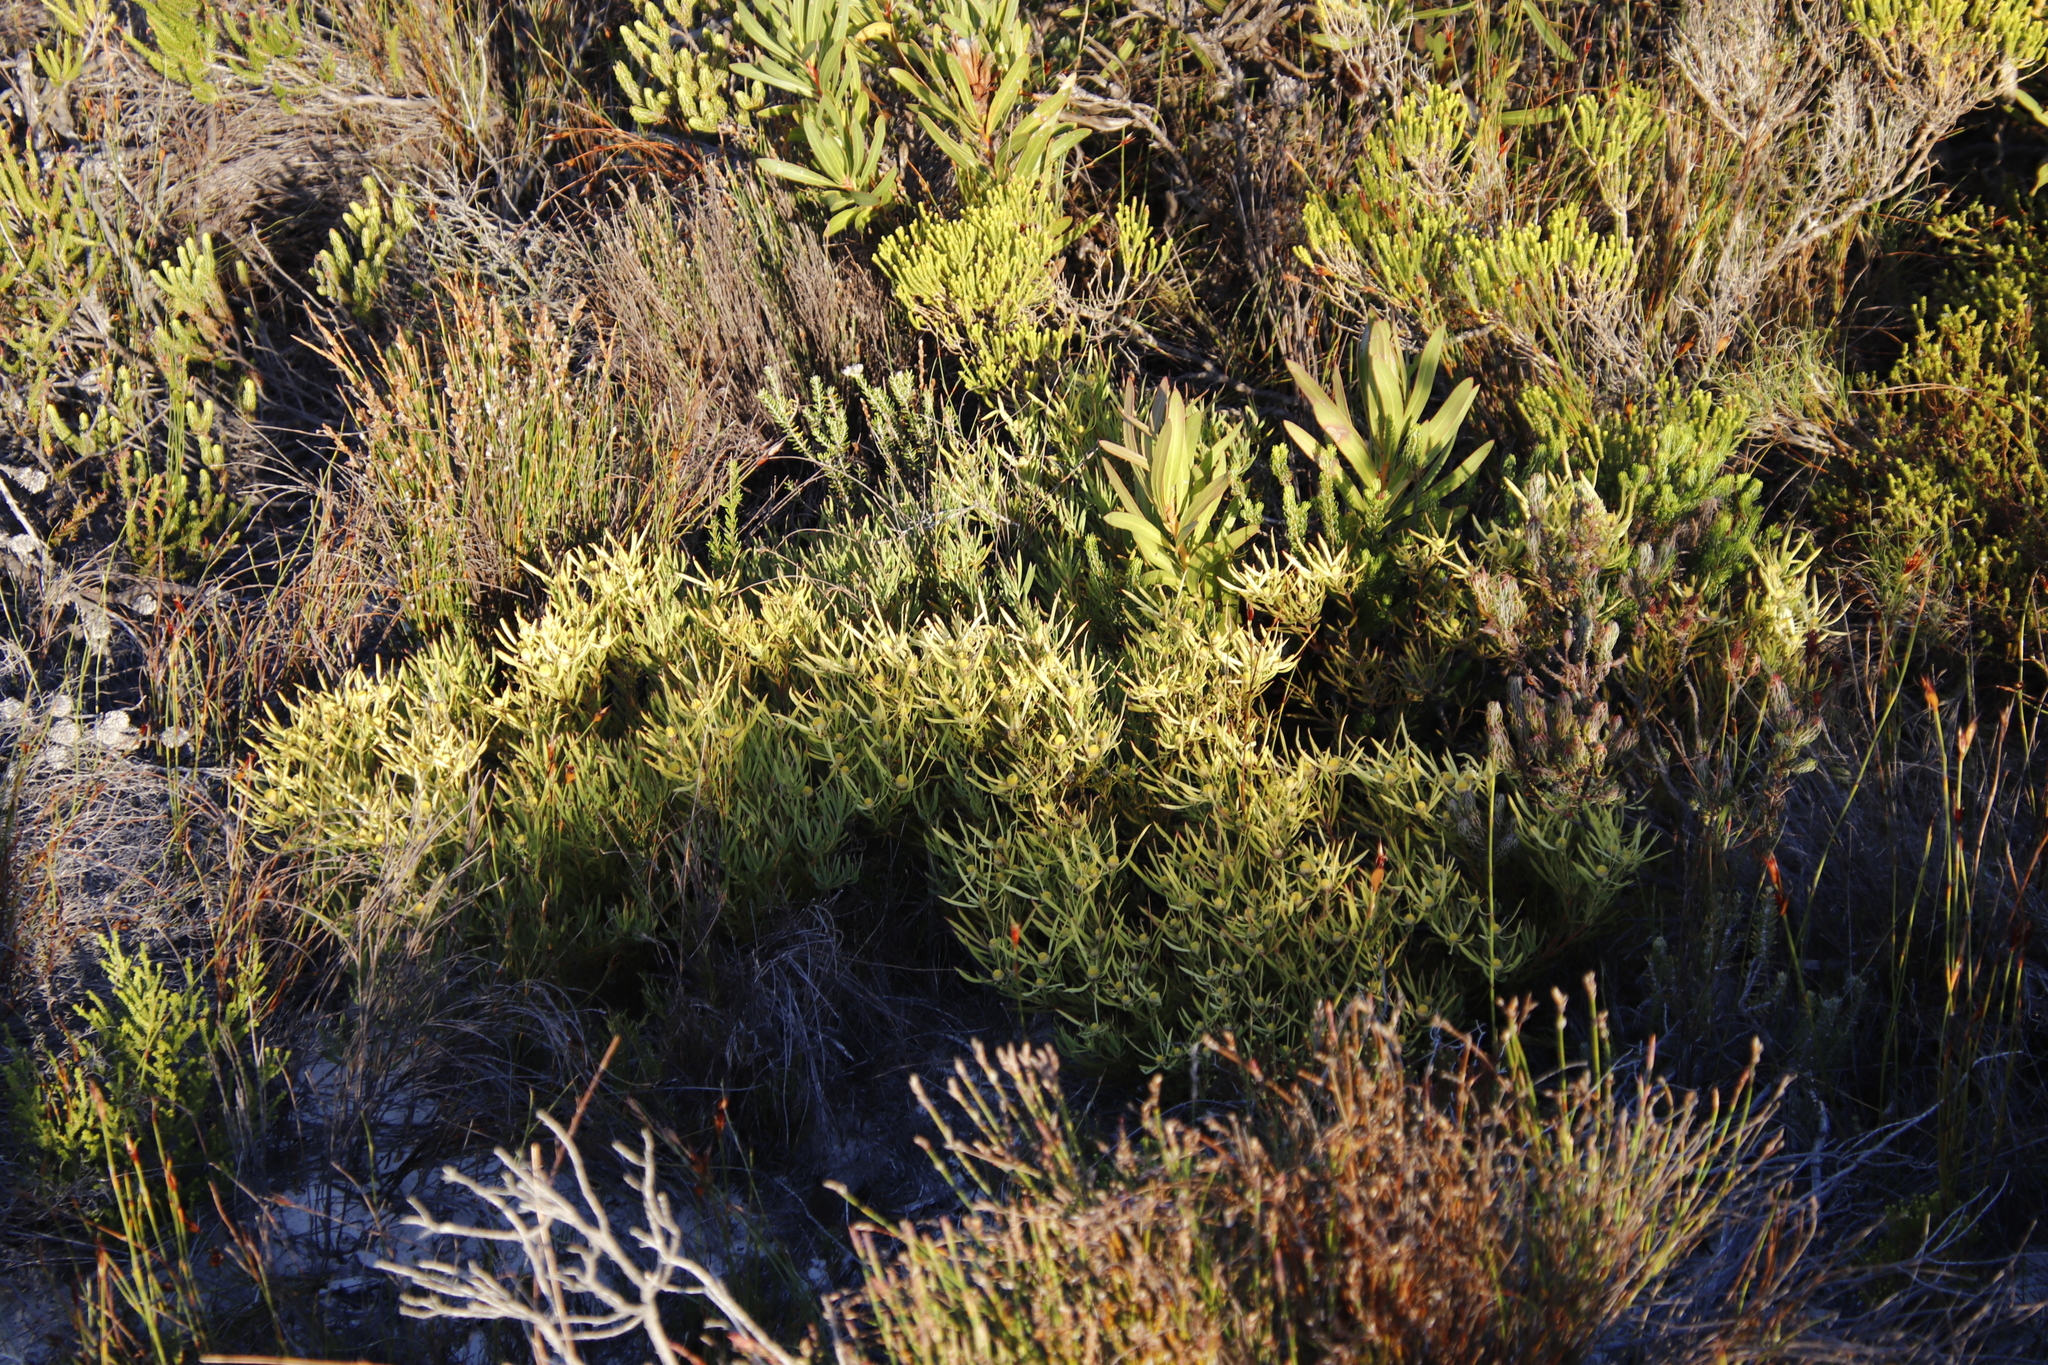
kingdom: Plantae
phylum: Tracheophyta
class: Magnoliopsida
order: Proteales
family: Proteaceae
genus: Leucadendron
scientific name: Leucadendron salignum
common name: Common sunshine conebush
